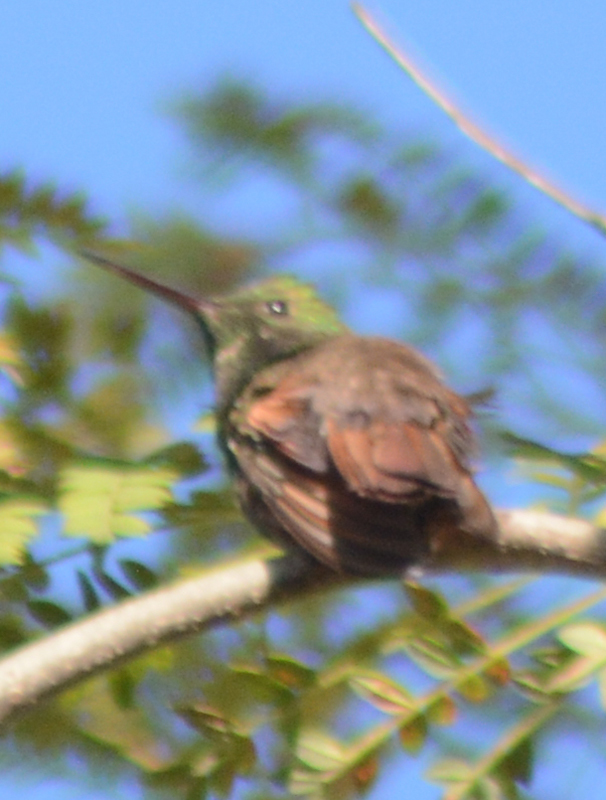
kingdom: Animalia
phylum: Chordata
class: Aves
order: Apodiformes
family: Trochilidae
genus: Saucerottia
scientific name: Saucerottia beryllina
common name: Berylline hummingbird
